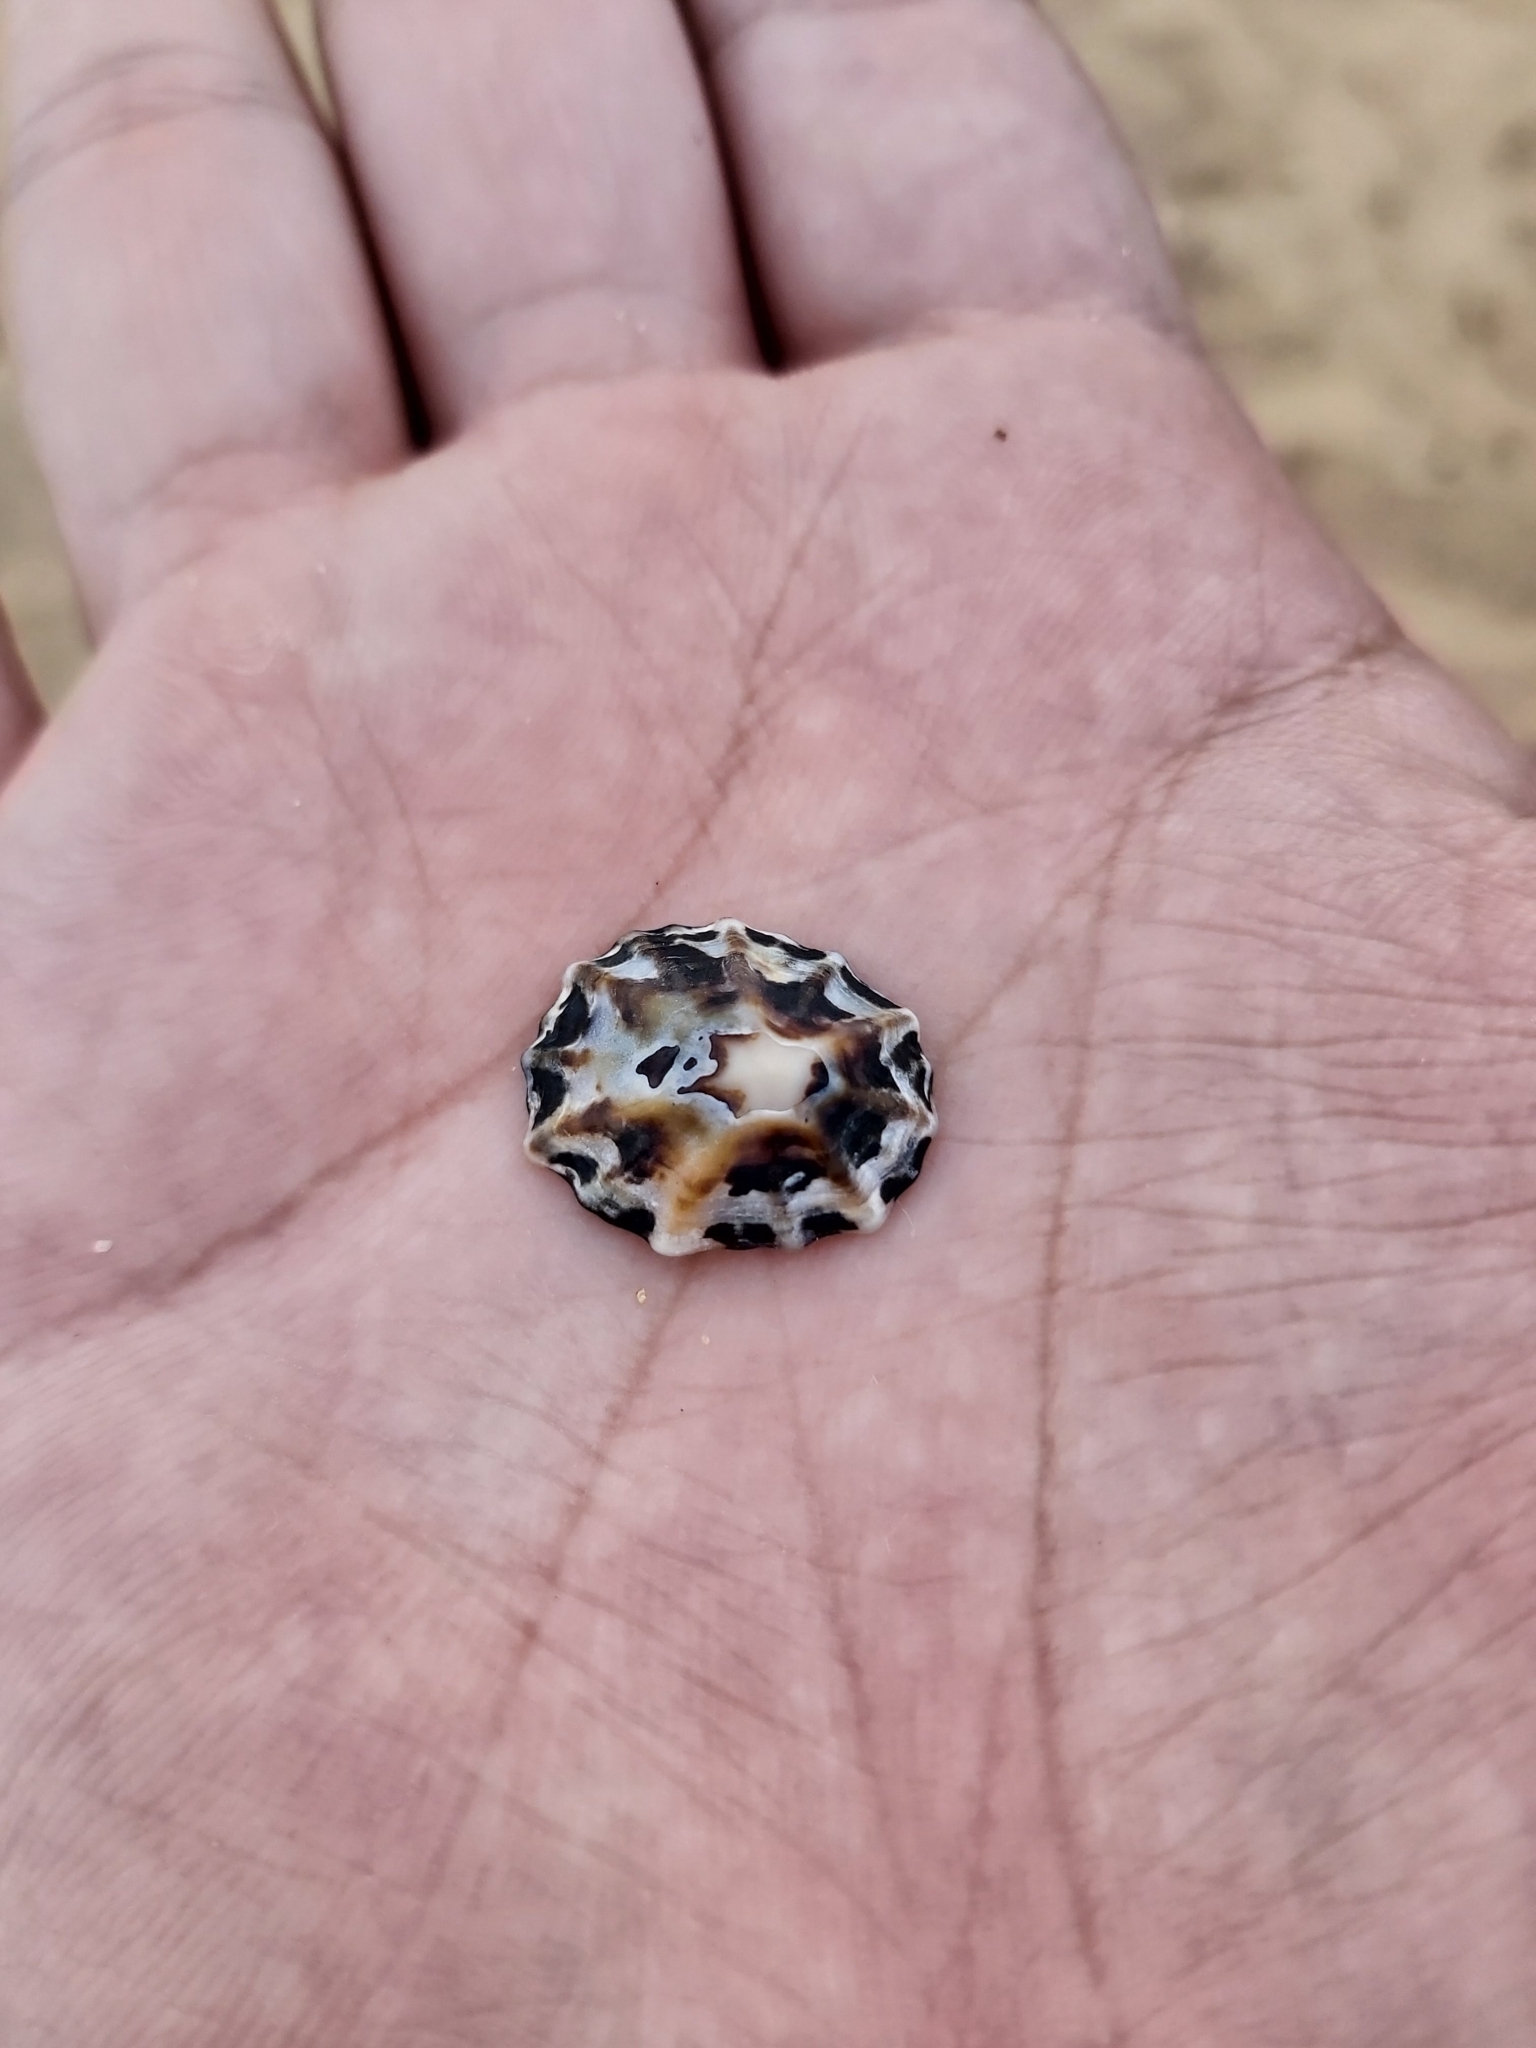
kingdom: Animalia
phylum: Mollusca
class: Gastropoda
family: Lottiidae
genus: Patelloida
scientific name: Patelloida alticostata
